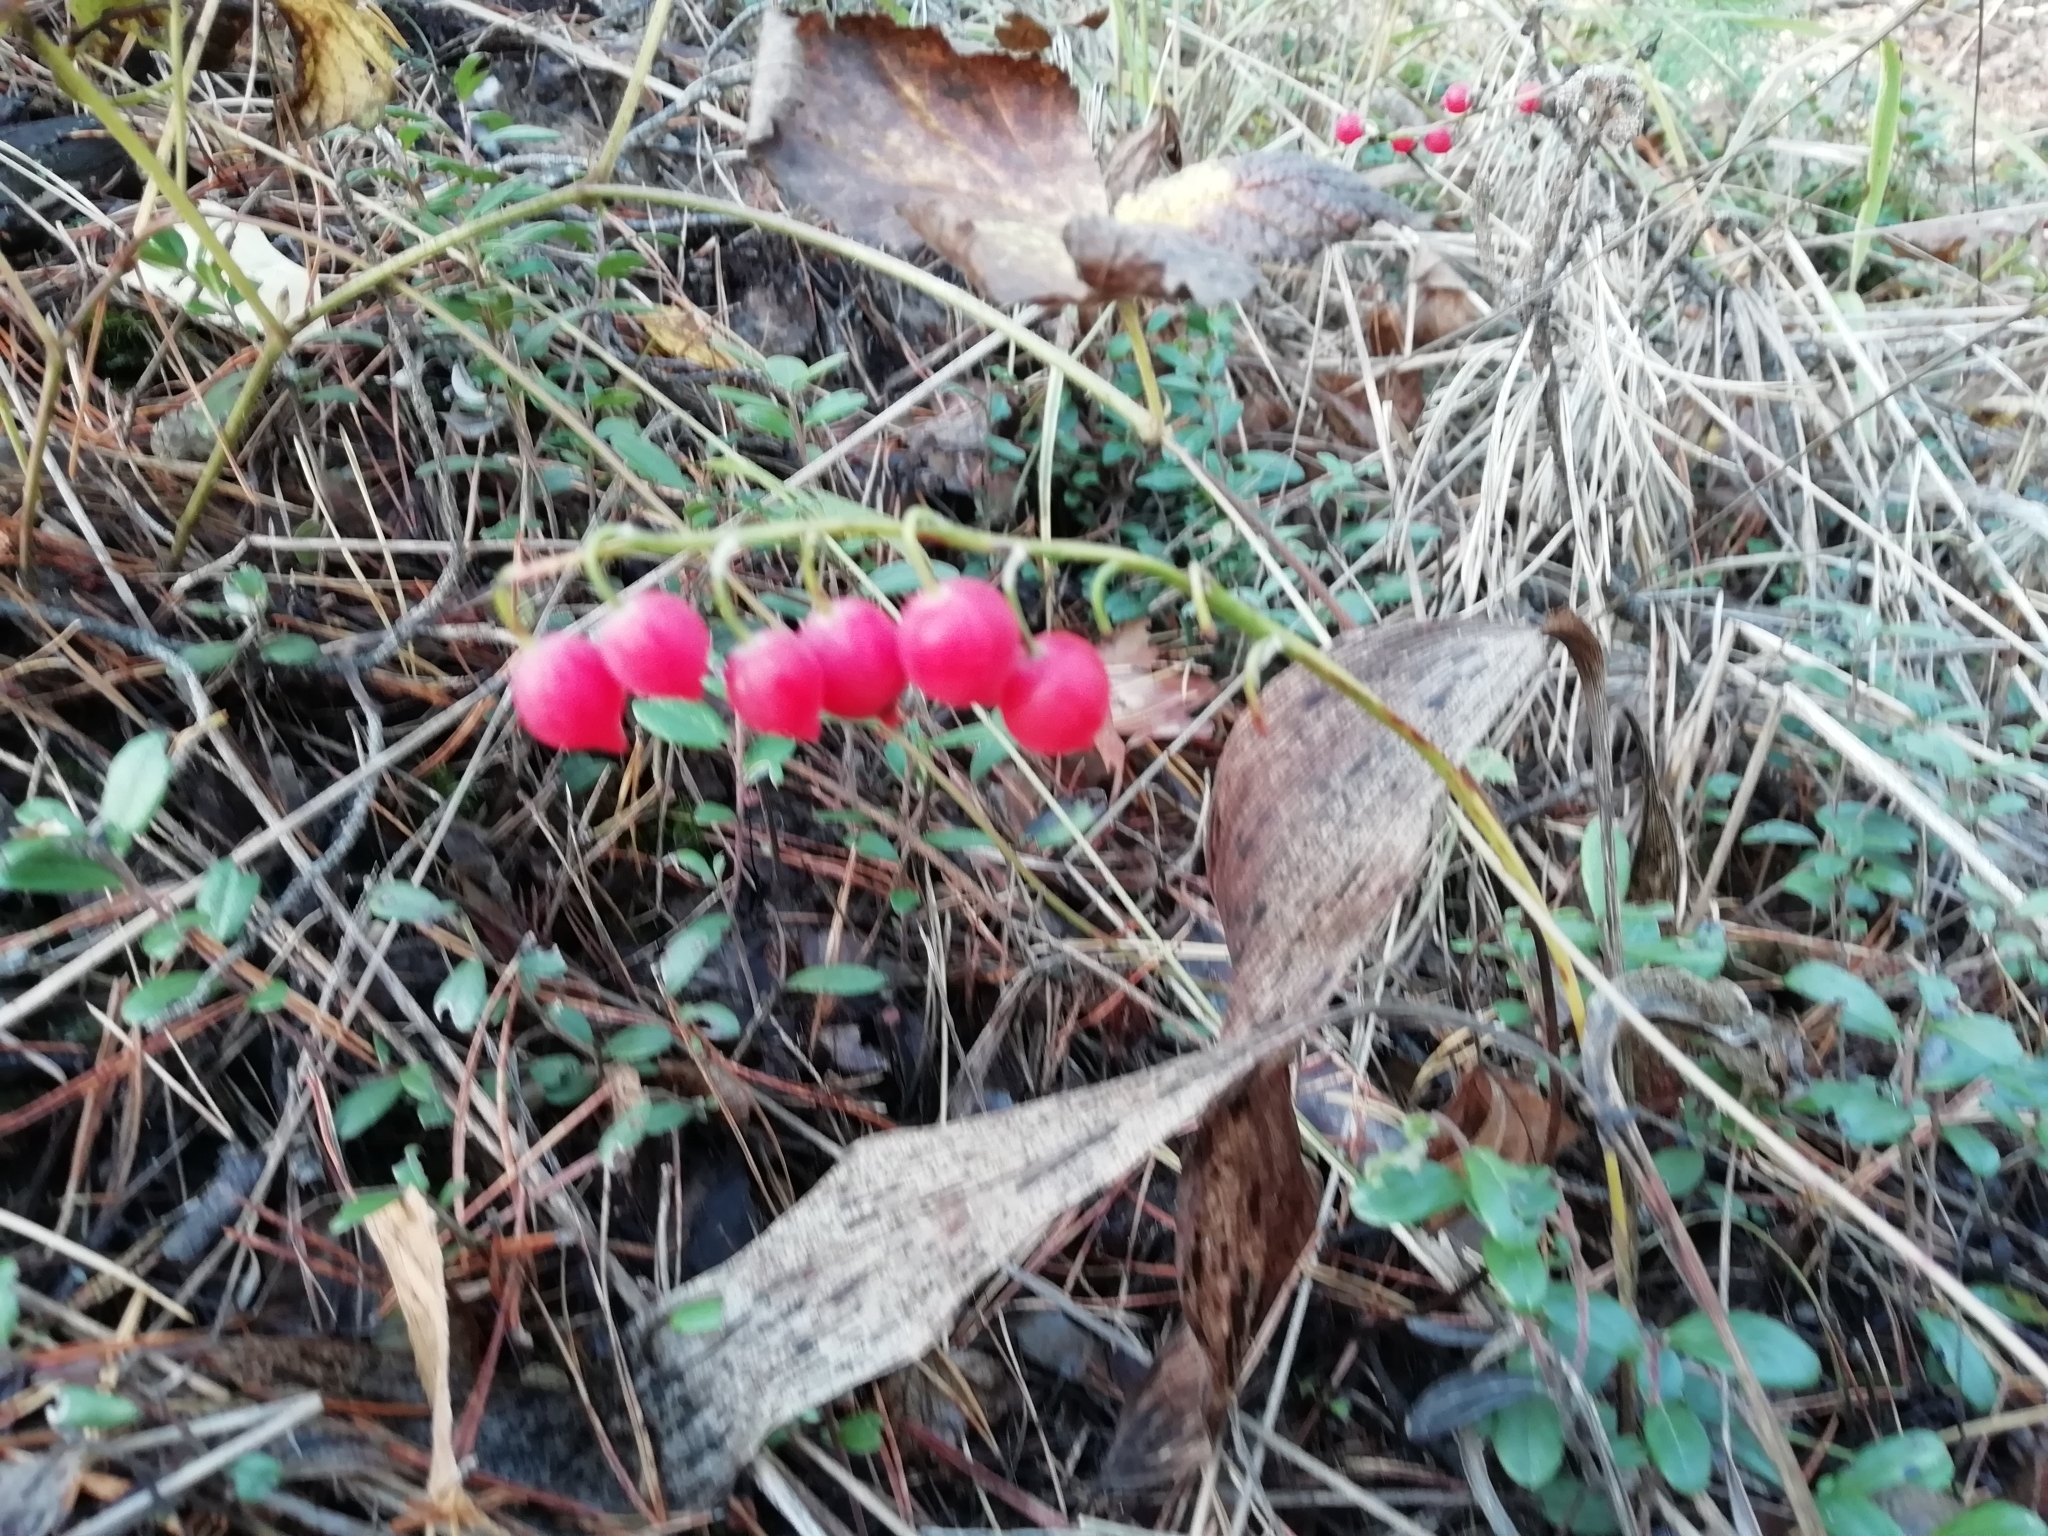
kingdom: Plantae
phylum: Tracheophyta
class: Liliopsida
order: Asparagales
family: Asparagaceae
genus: Convallaria
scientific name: Convallaria majalis
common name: Lily-of-the-valley
